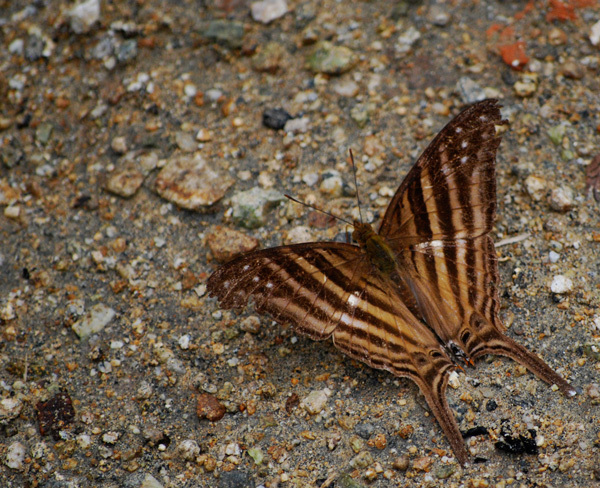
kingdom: Animalia
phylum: Arthropoda
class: Insecta
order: Lepidoptera
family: Nymphalidae
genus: Marpesia
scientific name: Marpesia chiron
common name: Many-banded daggerwing
